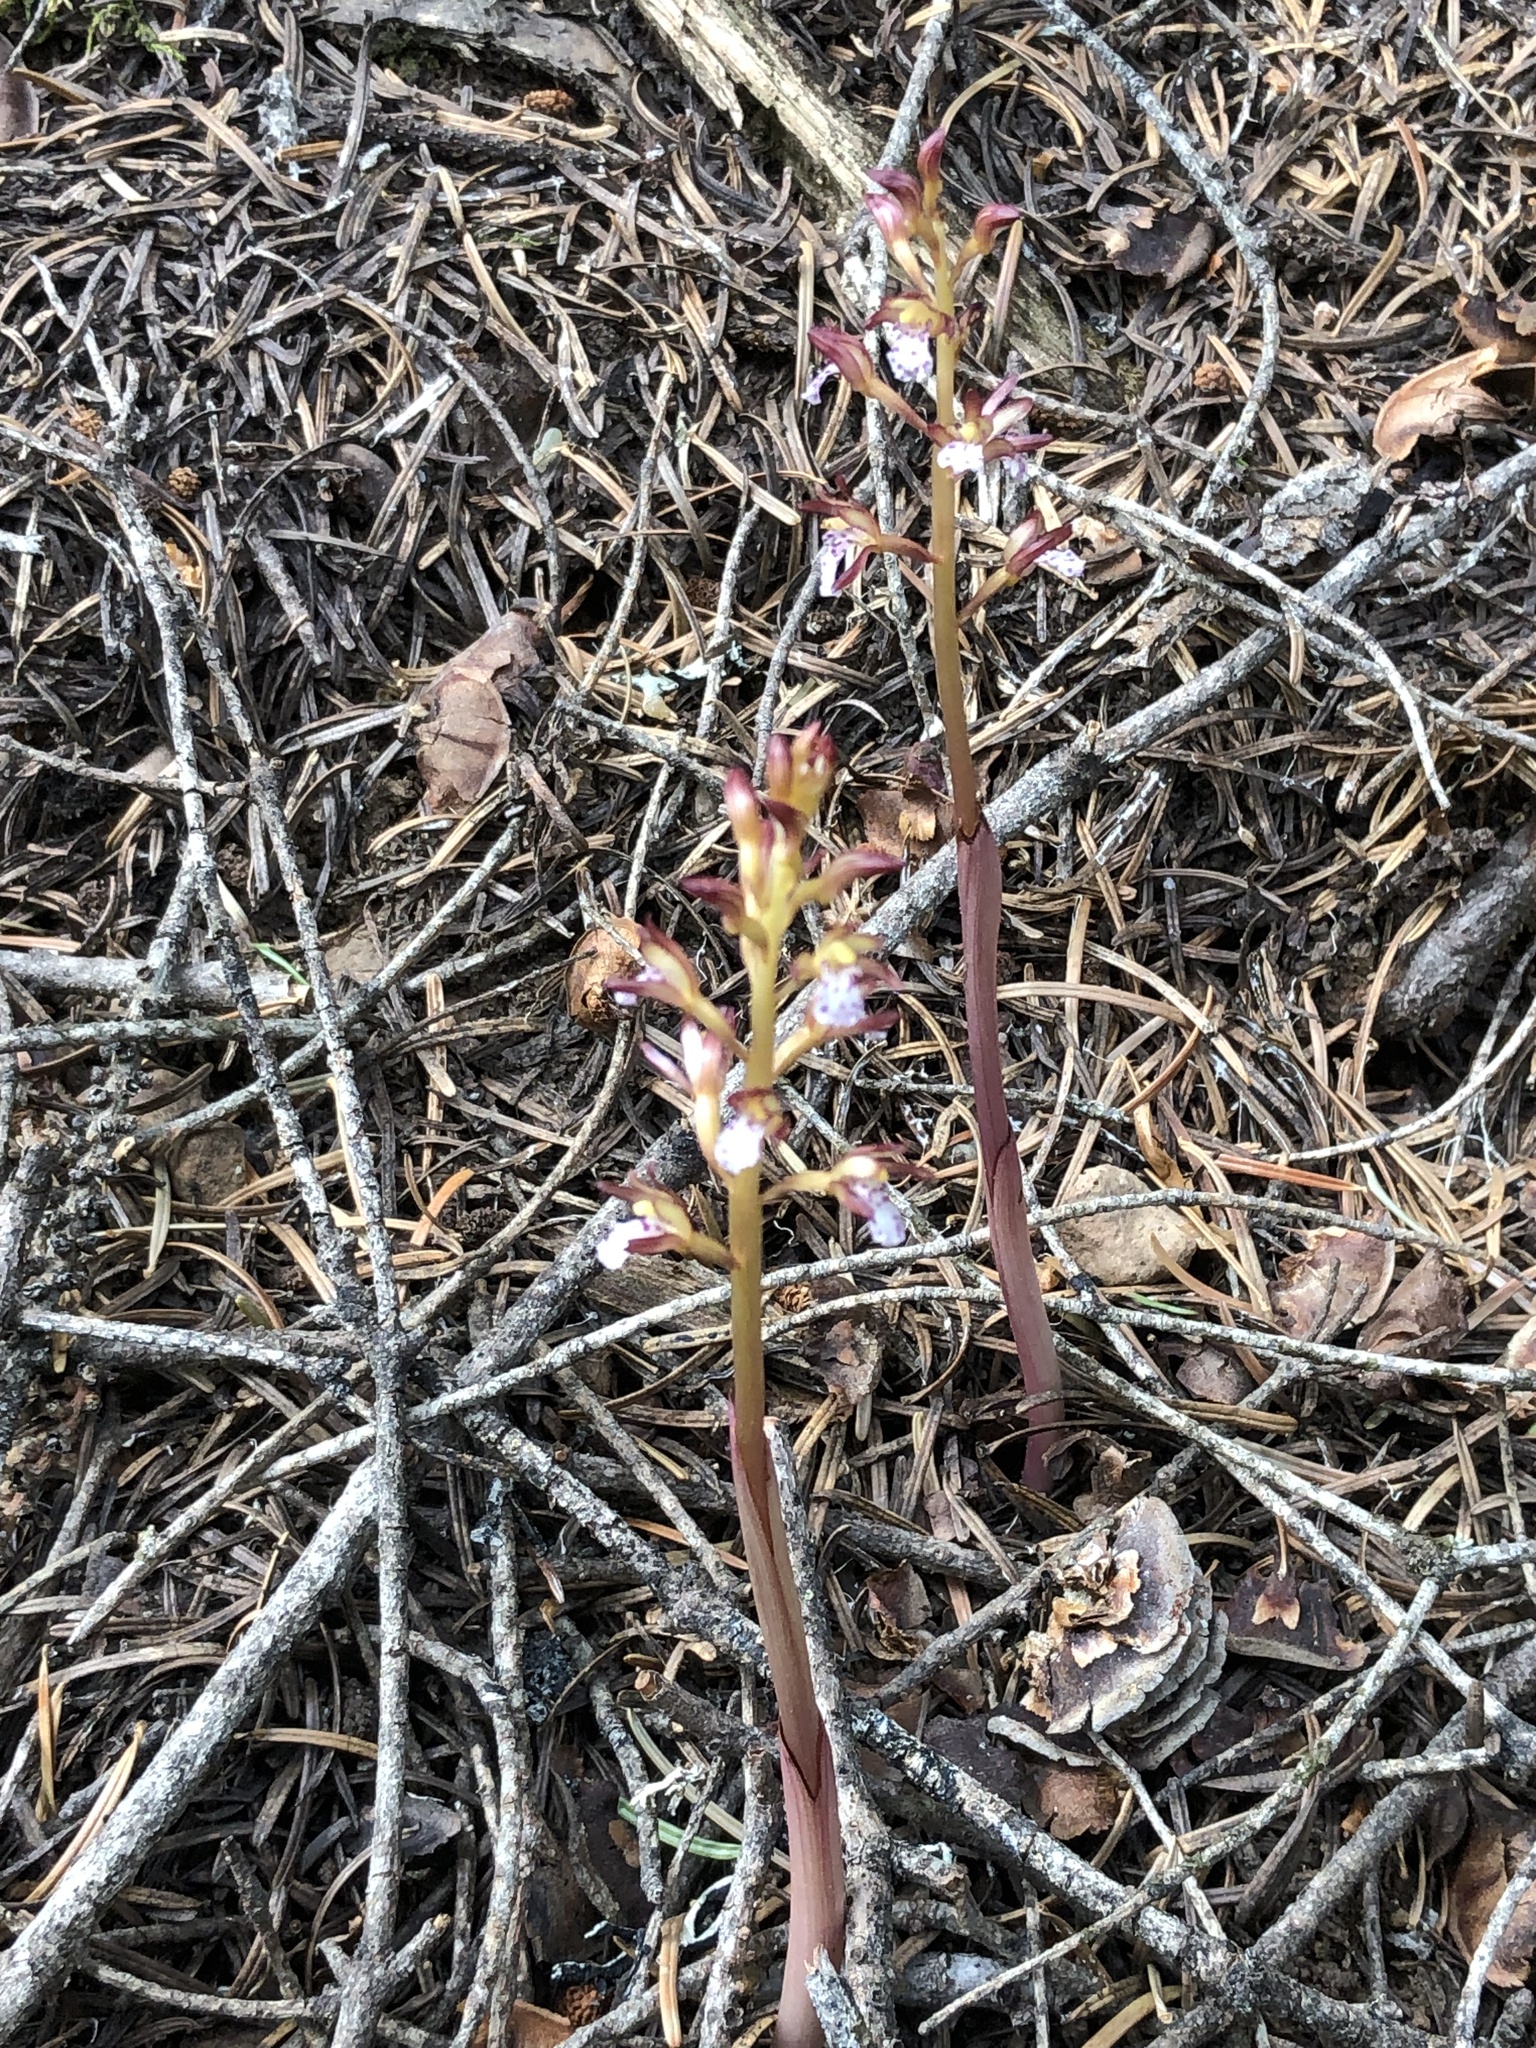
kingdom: Plantae
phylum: Tracheophyta
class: Liliopsida
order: Asparagales
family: Orchidaceae
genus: Corallorhiza
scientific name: Corallorhiza maculata
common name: Spotted coralroot
